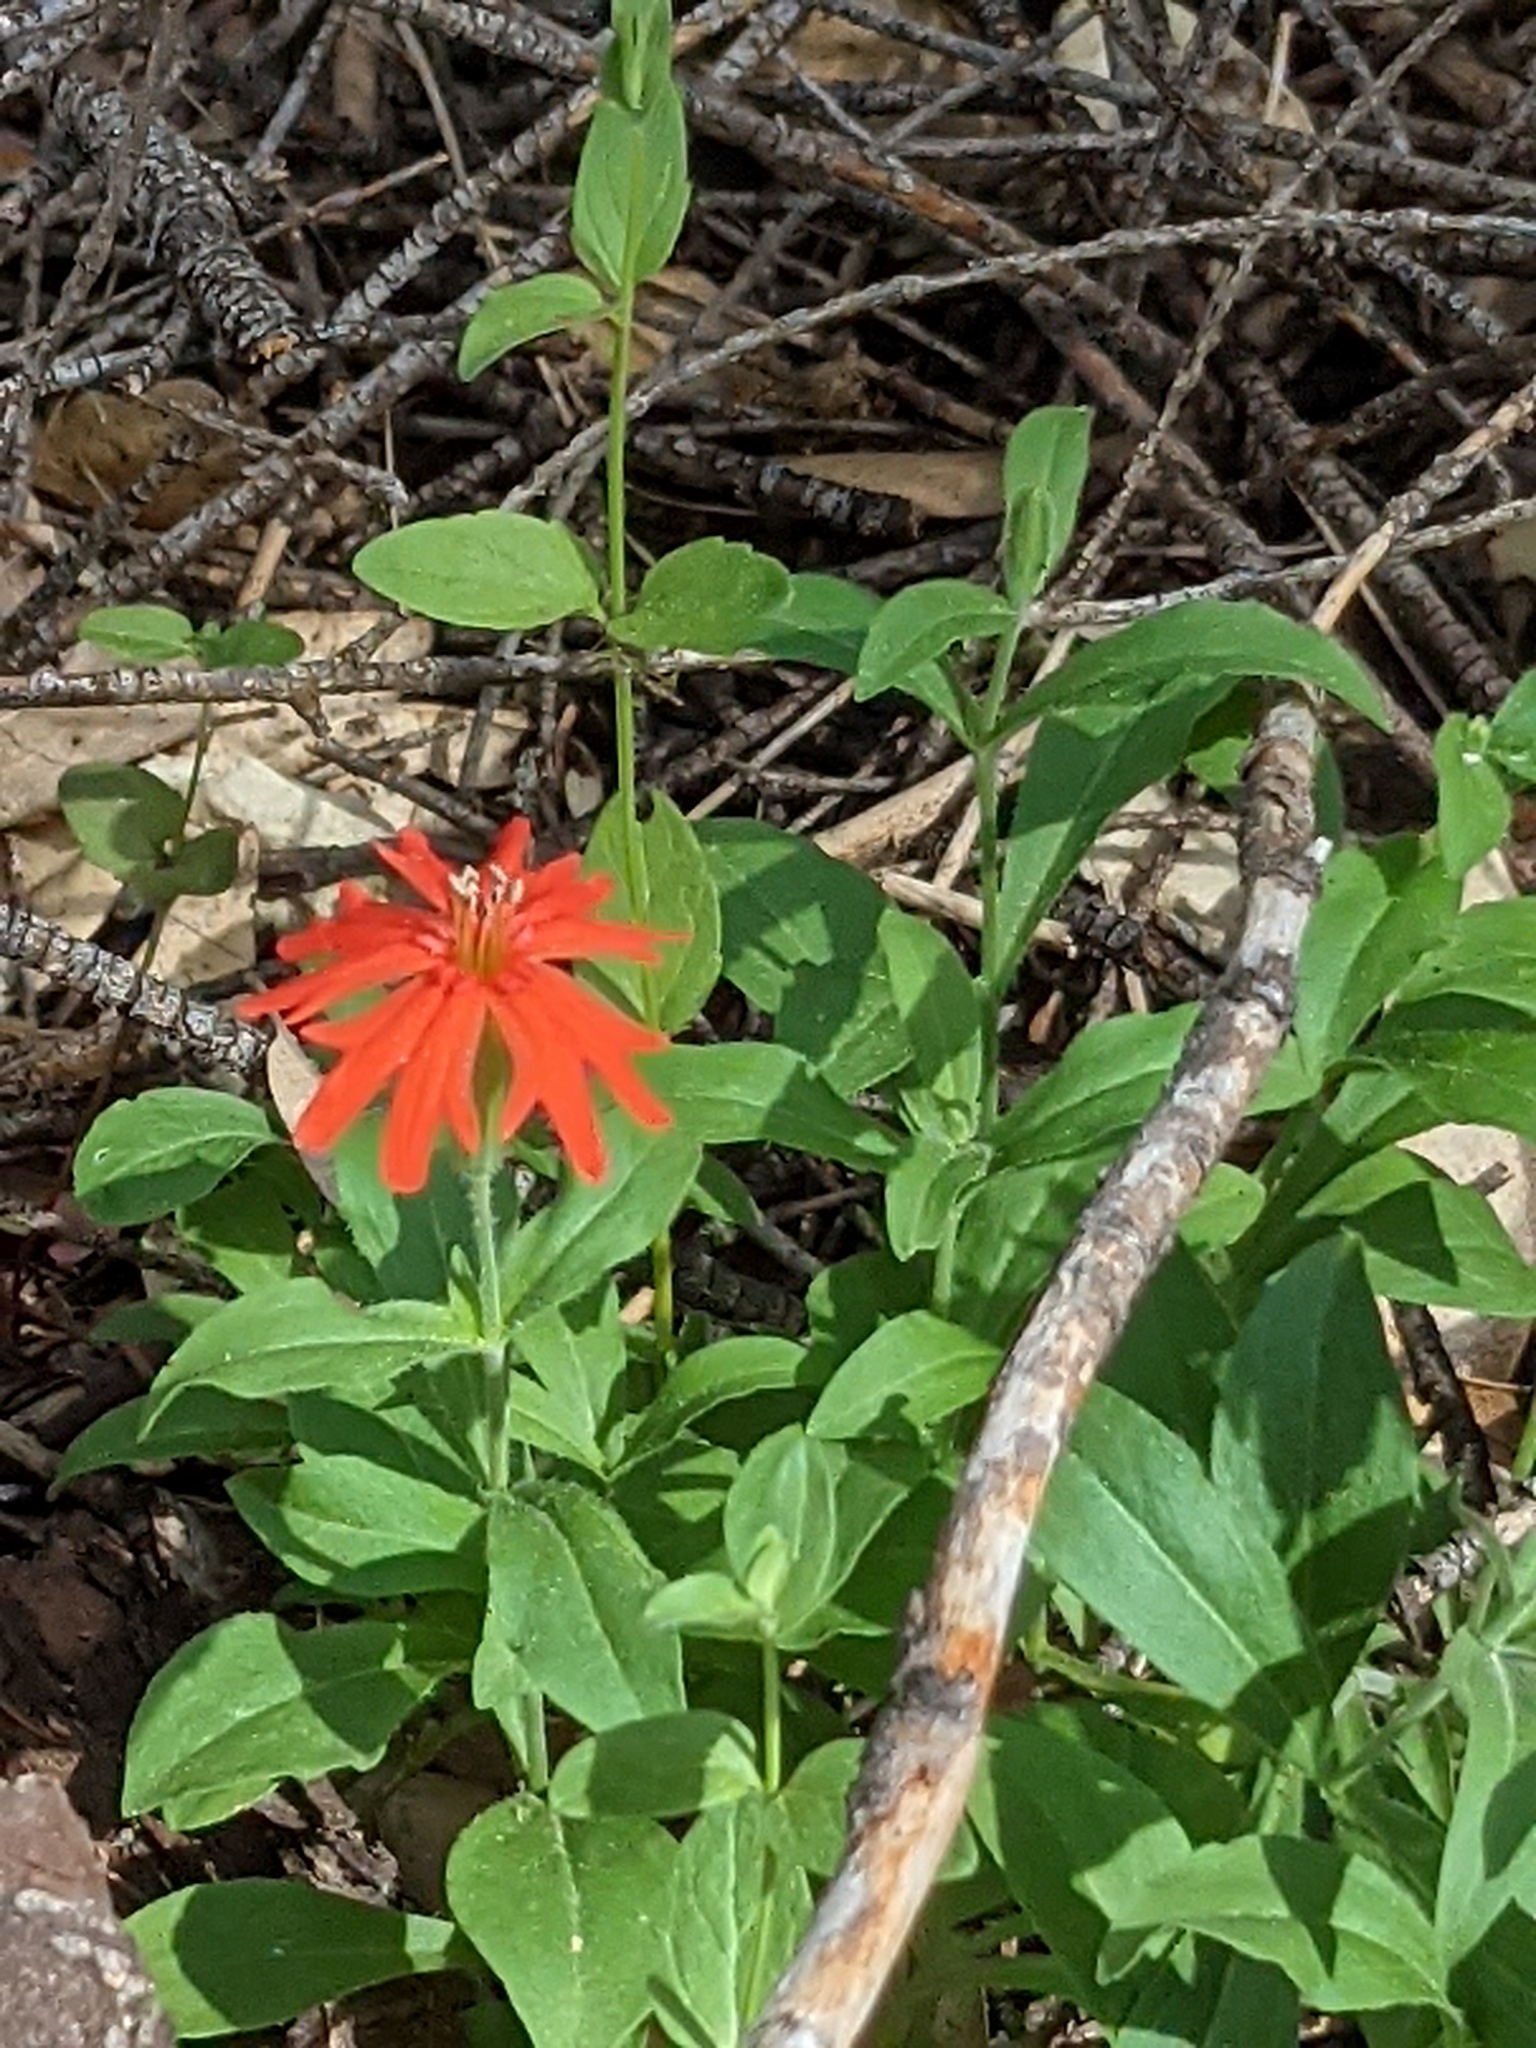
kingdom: Plantae
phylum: Tracheophyta
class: Magnoliopsida
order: Caryophyllales
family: Caryophyllaceae
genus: Silene
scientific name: Silene laciniata
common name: Indian-pink
